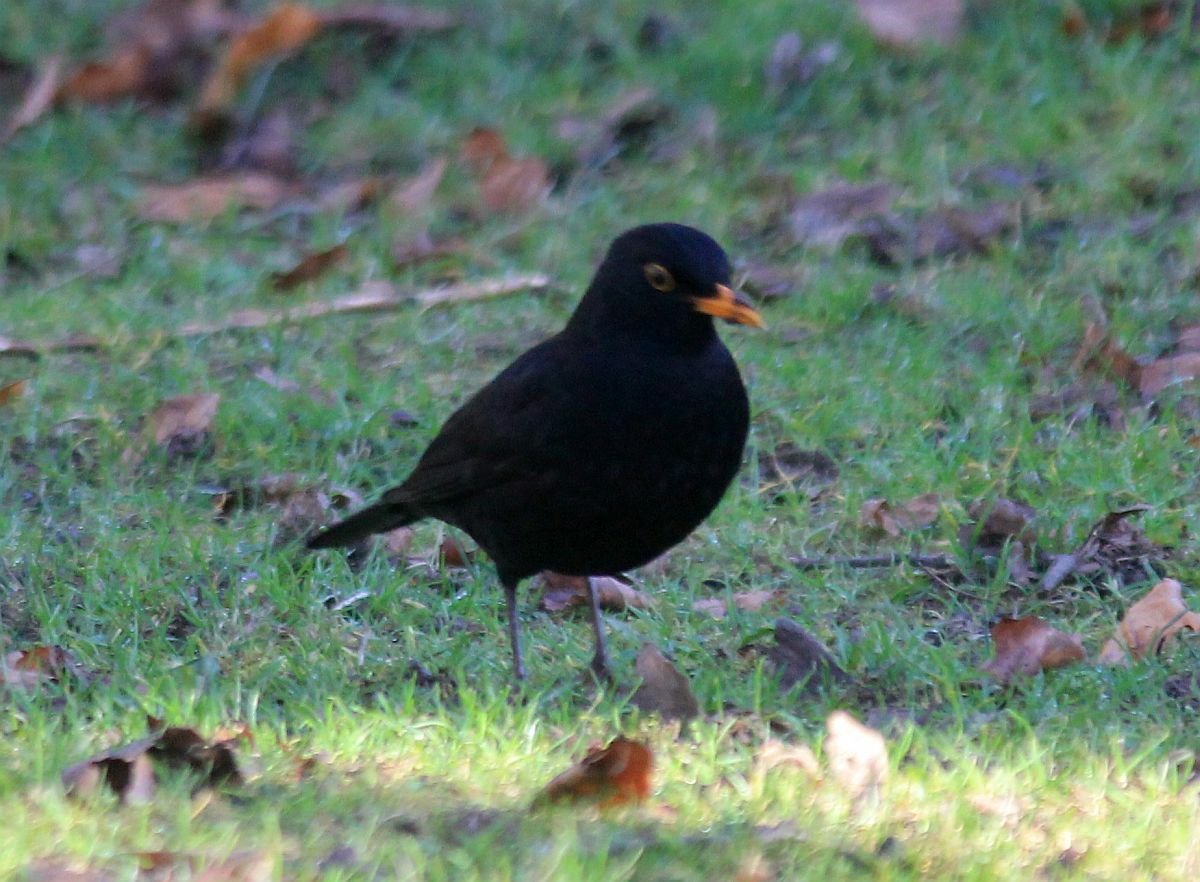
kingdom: Animalia
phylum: Chordata
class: Aves
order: Passeriformes
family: Turdidae
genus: Turdus
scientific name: Turdus merula
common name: Common blackbird
